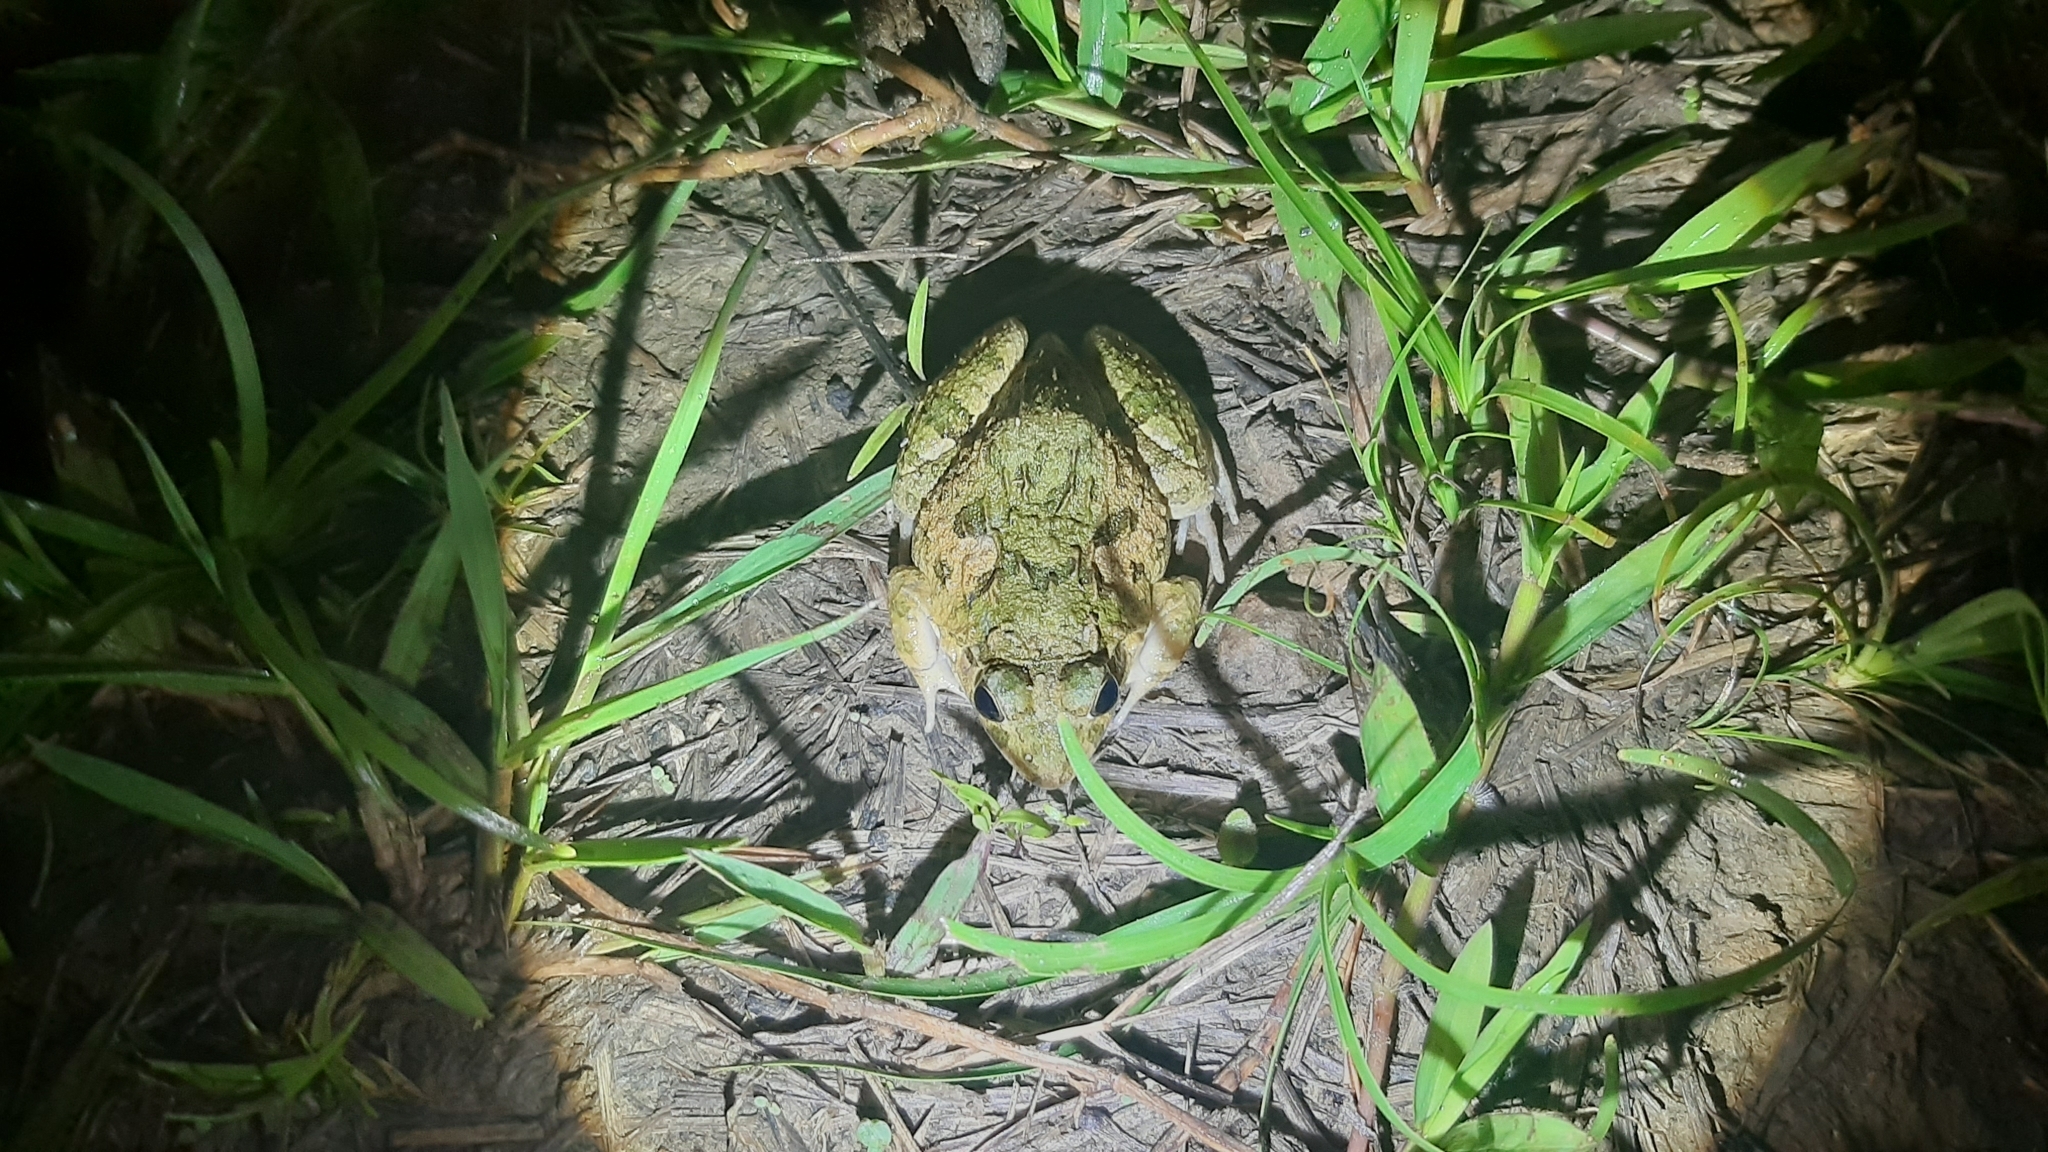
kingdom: Animalia
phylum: Chordata
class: Amphibia
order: Anura
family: Dicroglossidae
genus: Fejervarya
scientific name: Fejervarya limnocharis
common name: Asian grass frog/common pond frog/field frog/grass frog/indian rice frog
